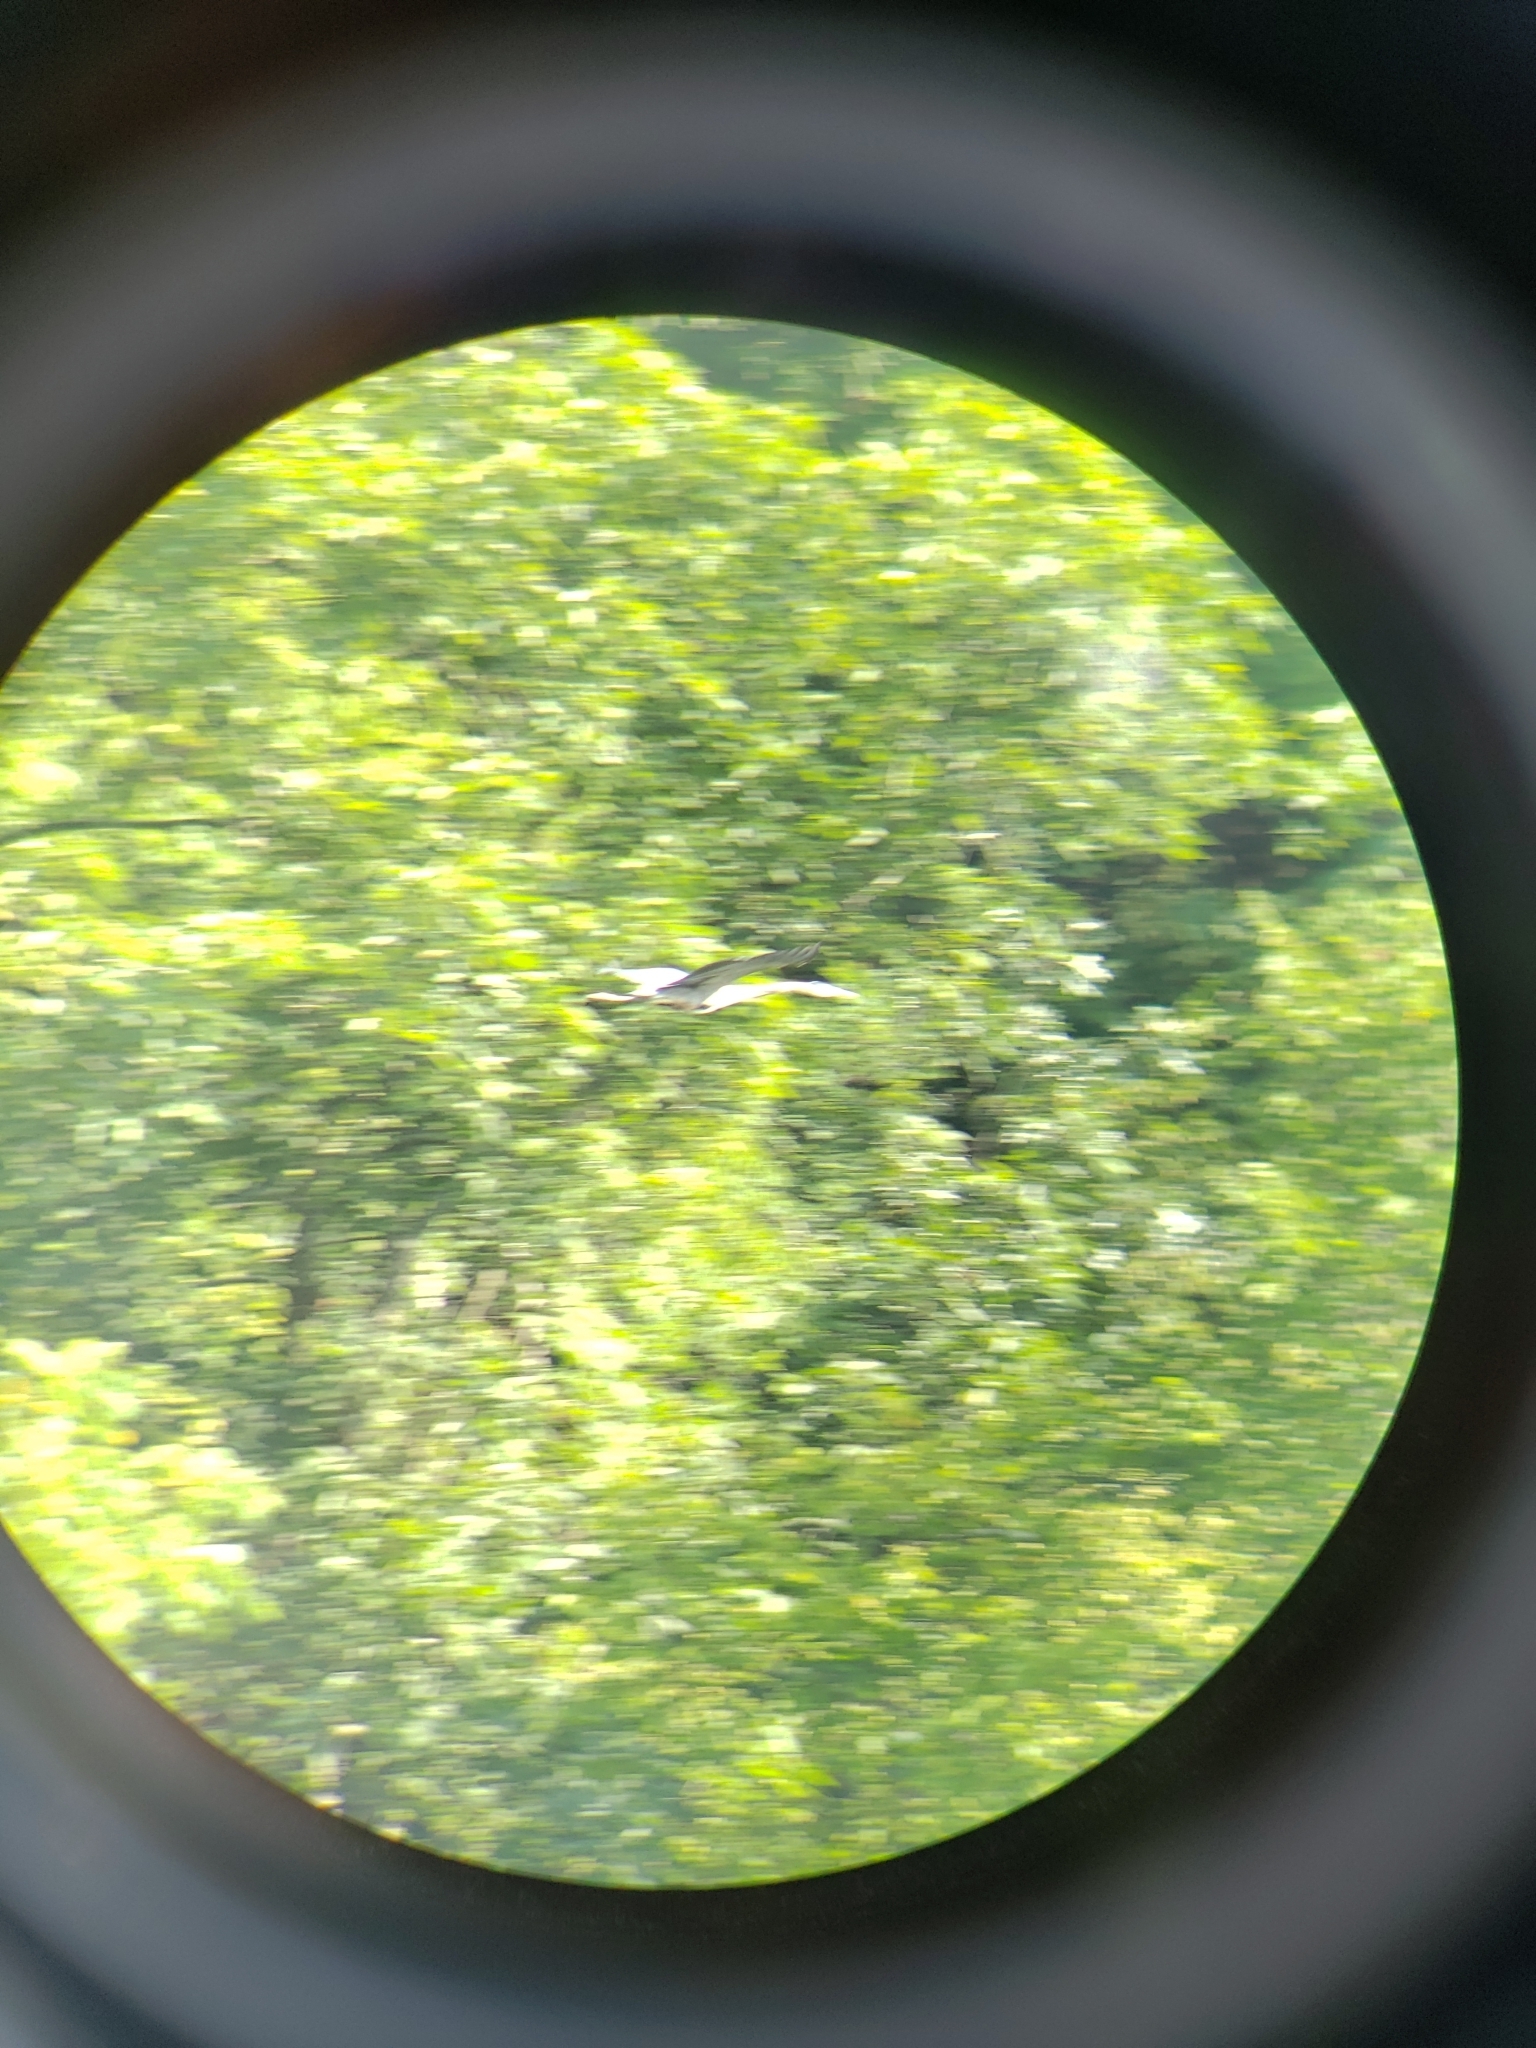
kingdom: Animalia
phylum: Chordata
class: Aves
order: Pelecaniformes
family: Ardeidae
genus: Ardea
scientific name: Ardea herodias
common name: Great blue heron
